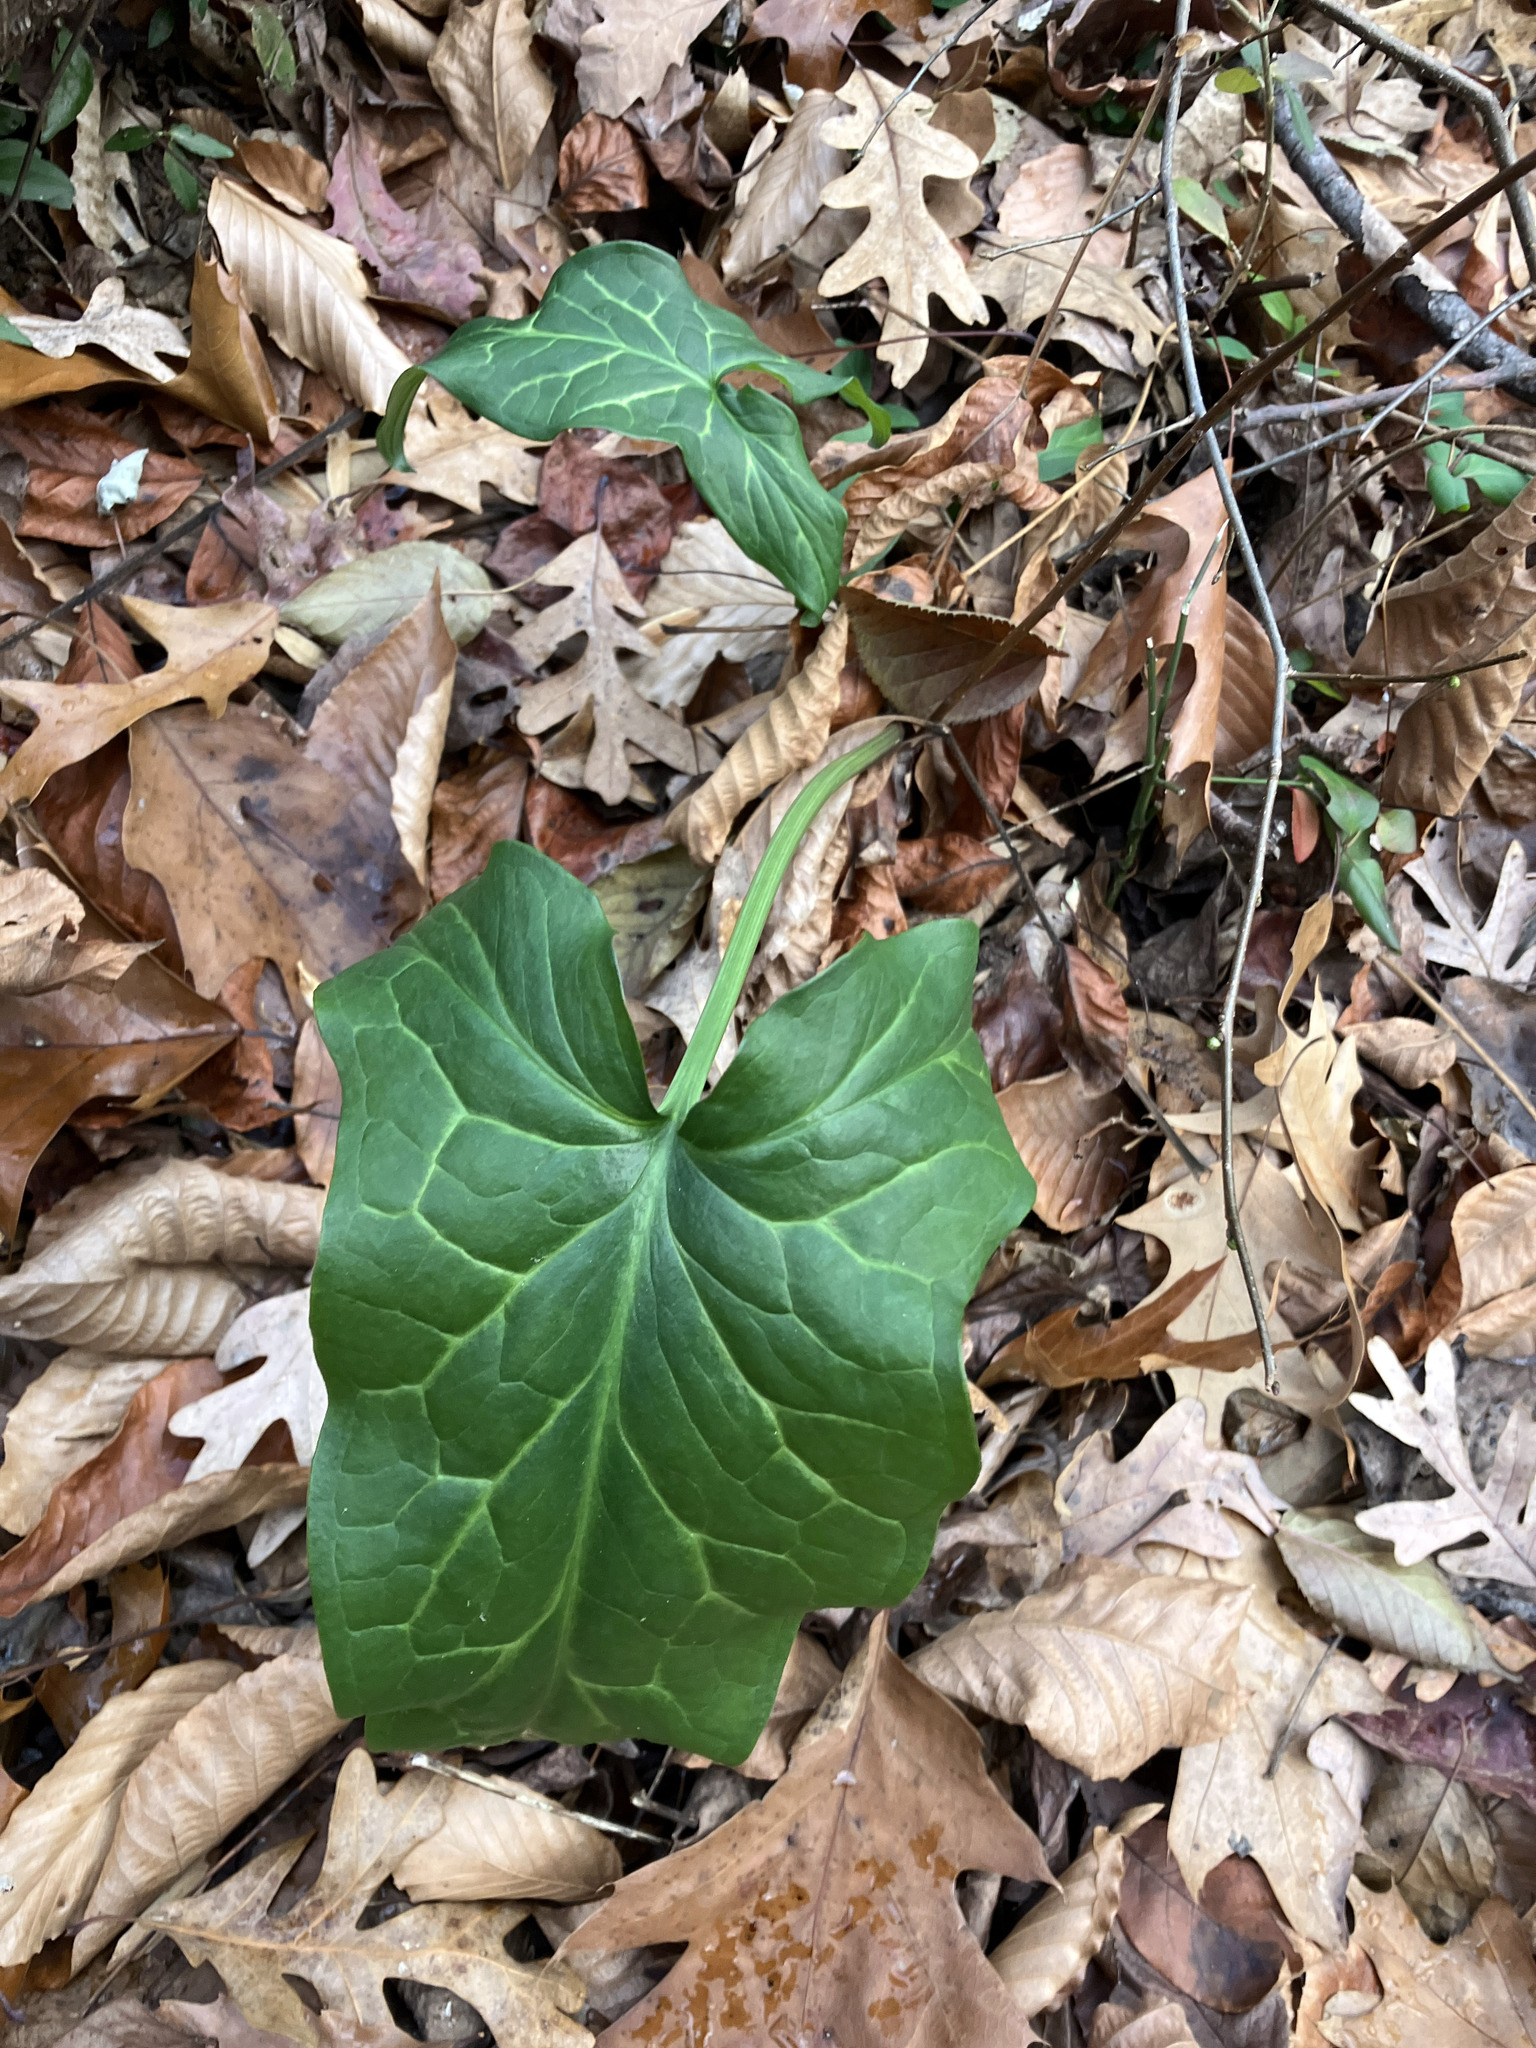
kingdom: Plantae
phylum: Tracheophyta
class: Liliopsida
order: Alismatales
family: Araceae
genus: Arum
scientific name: Arum italicum
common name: Italian lords-and-ladies
